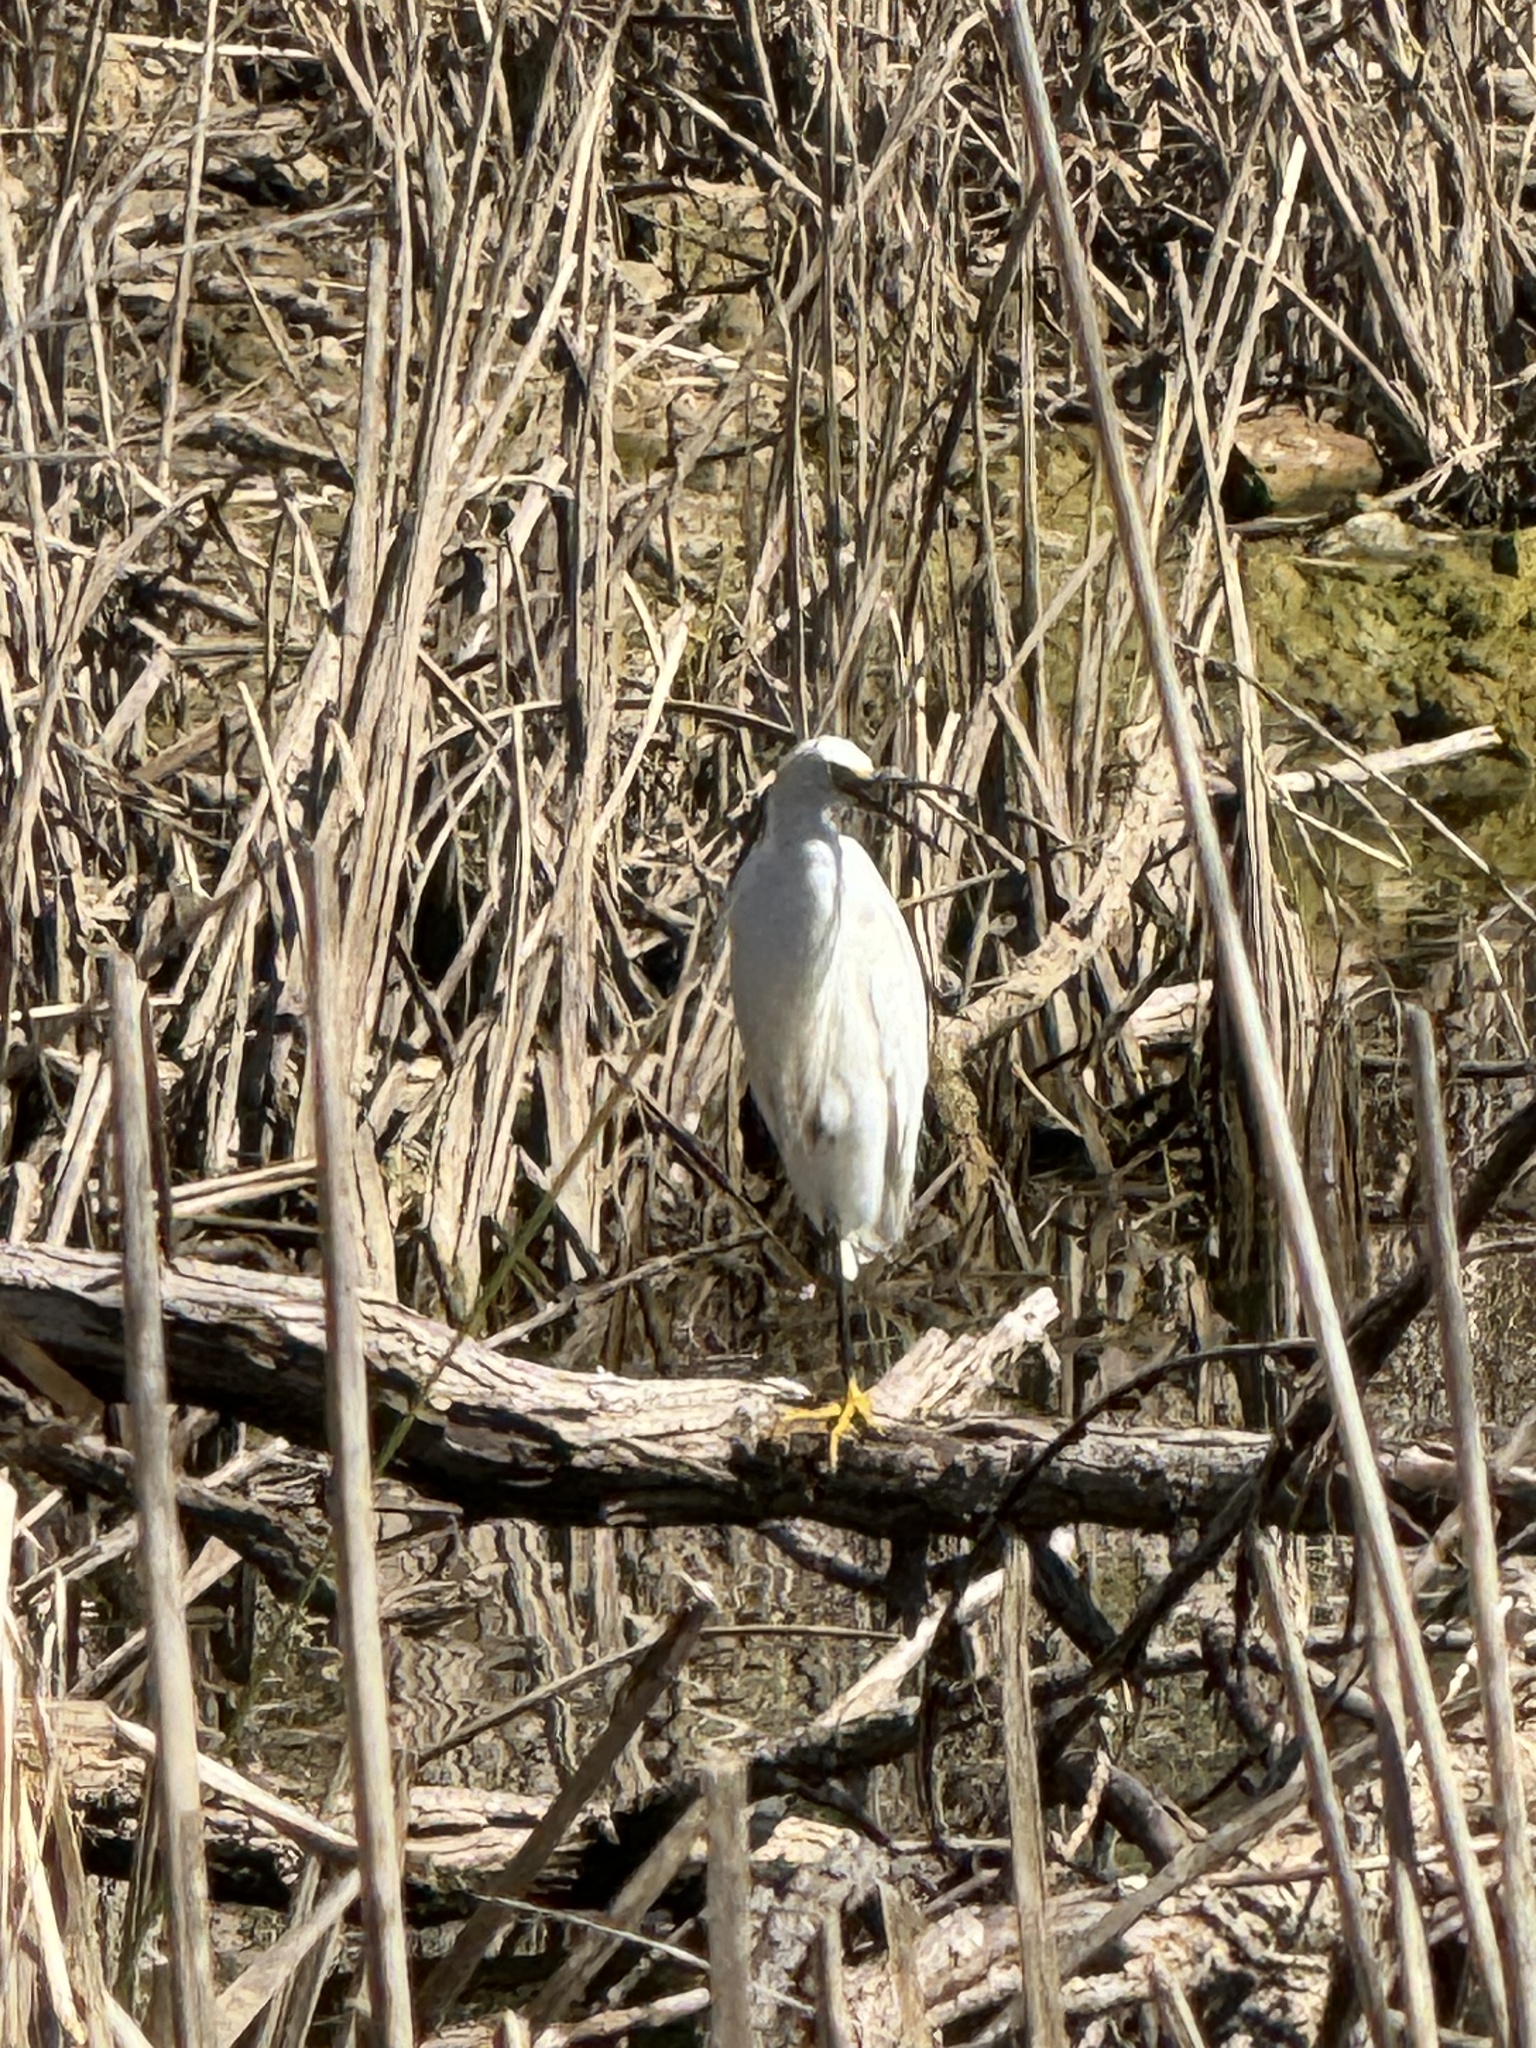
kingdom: Animalia
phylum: Chordata
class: Aves
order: Pelecaniformes
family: Ardeidae
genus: Egretta
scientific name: Egretta thula
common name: Snowy egret
